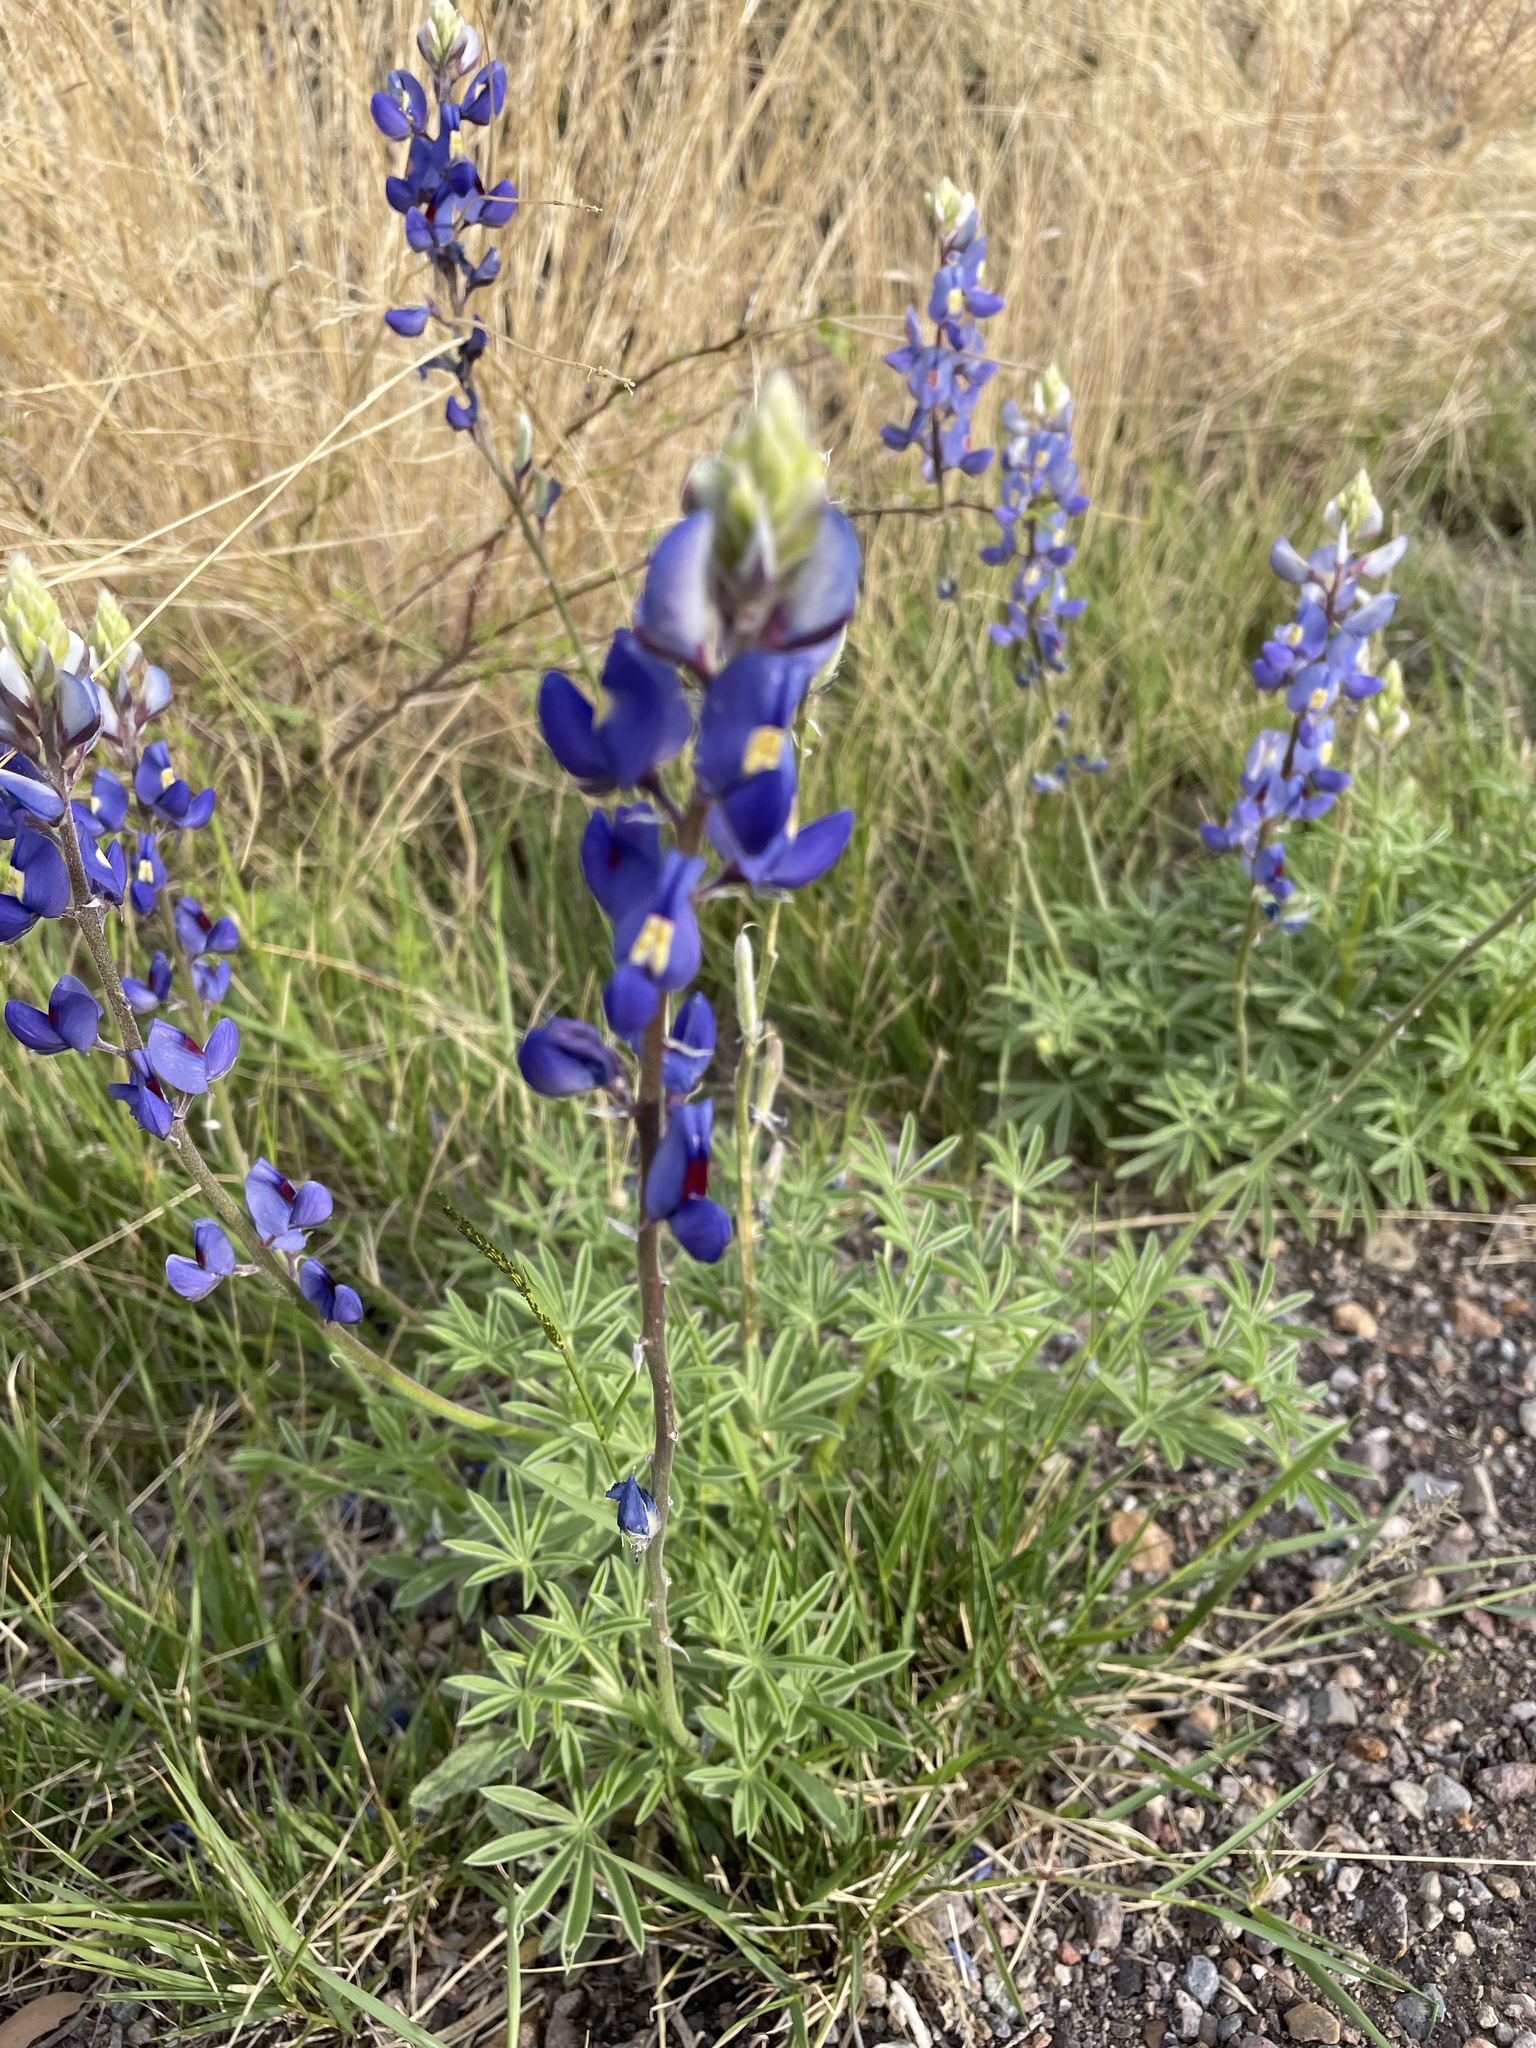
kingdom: Plantae
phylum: Tracheophyta
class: Magnoliopsida
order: Fabales
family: Fabaceae
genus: Lupinus
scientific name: Lupinus havardii
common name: Chisos bluebonnet
